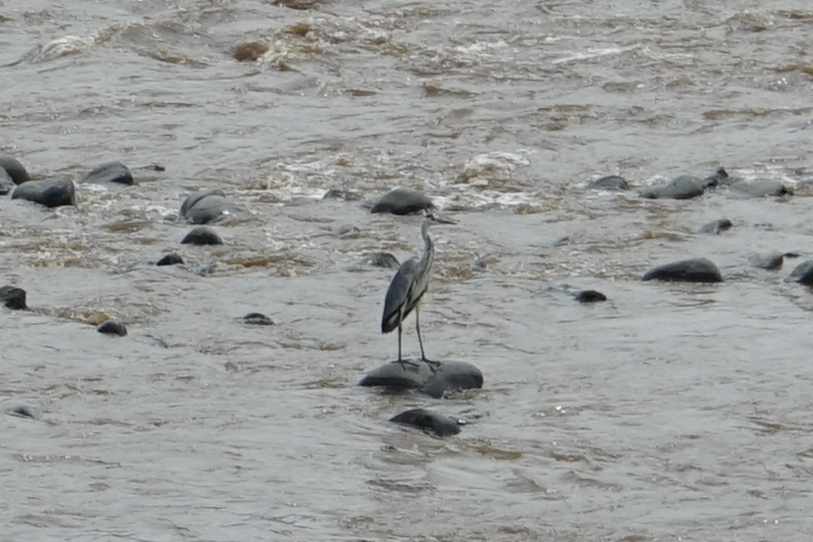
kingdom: Animalia
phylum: Chordata
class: Aves
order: Pelecaniformes
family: Ardeidae
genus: Ardea
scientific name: Ardea cinerea
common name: Grey heron
